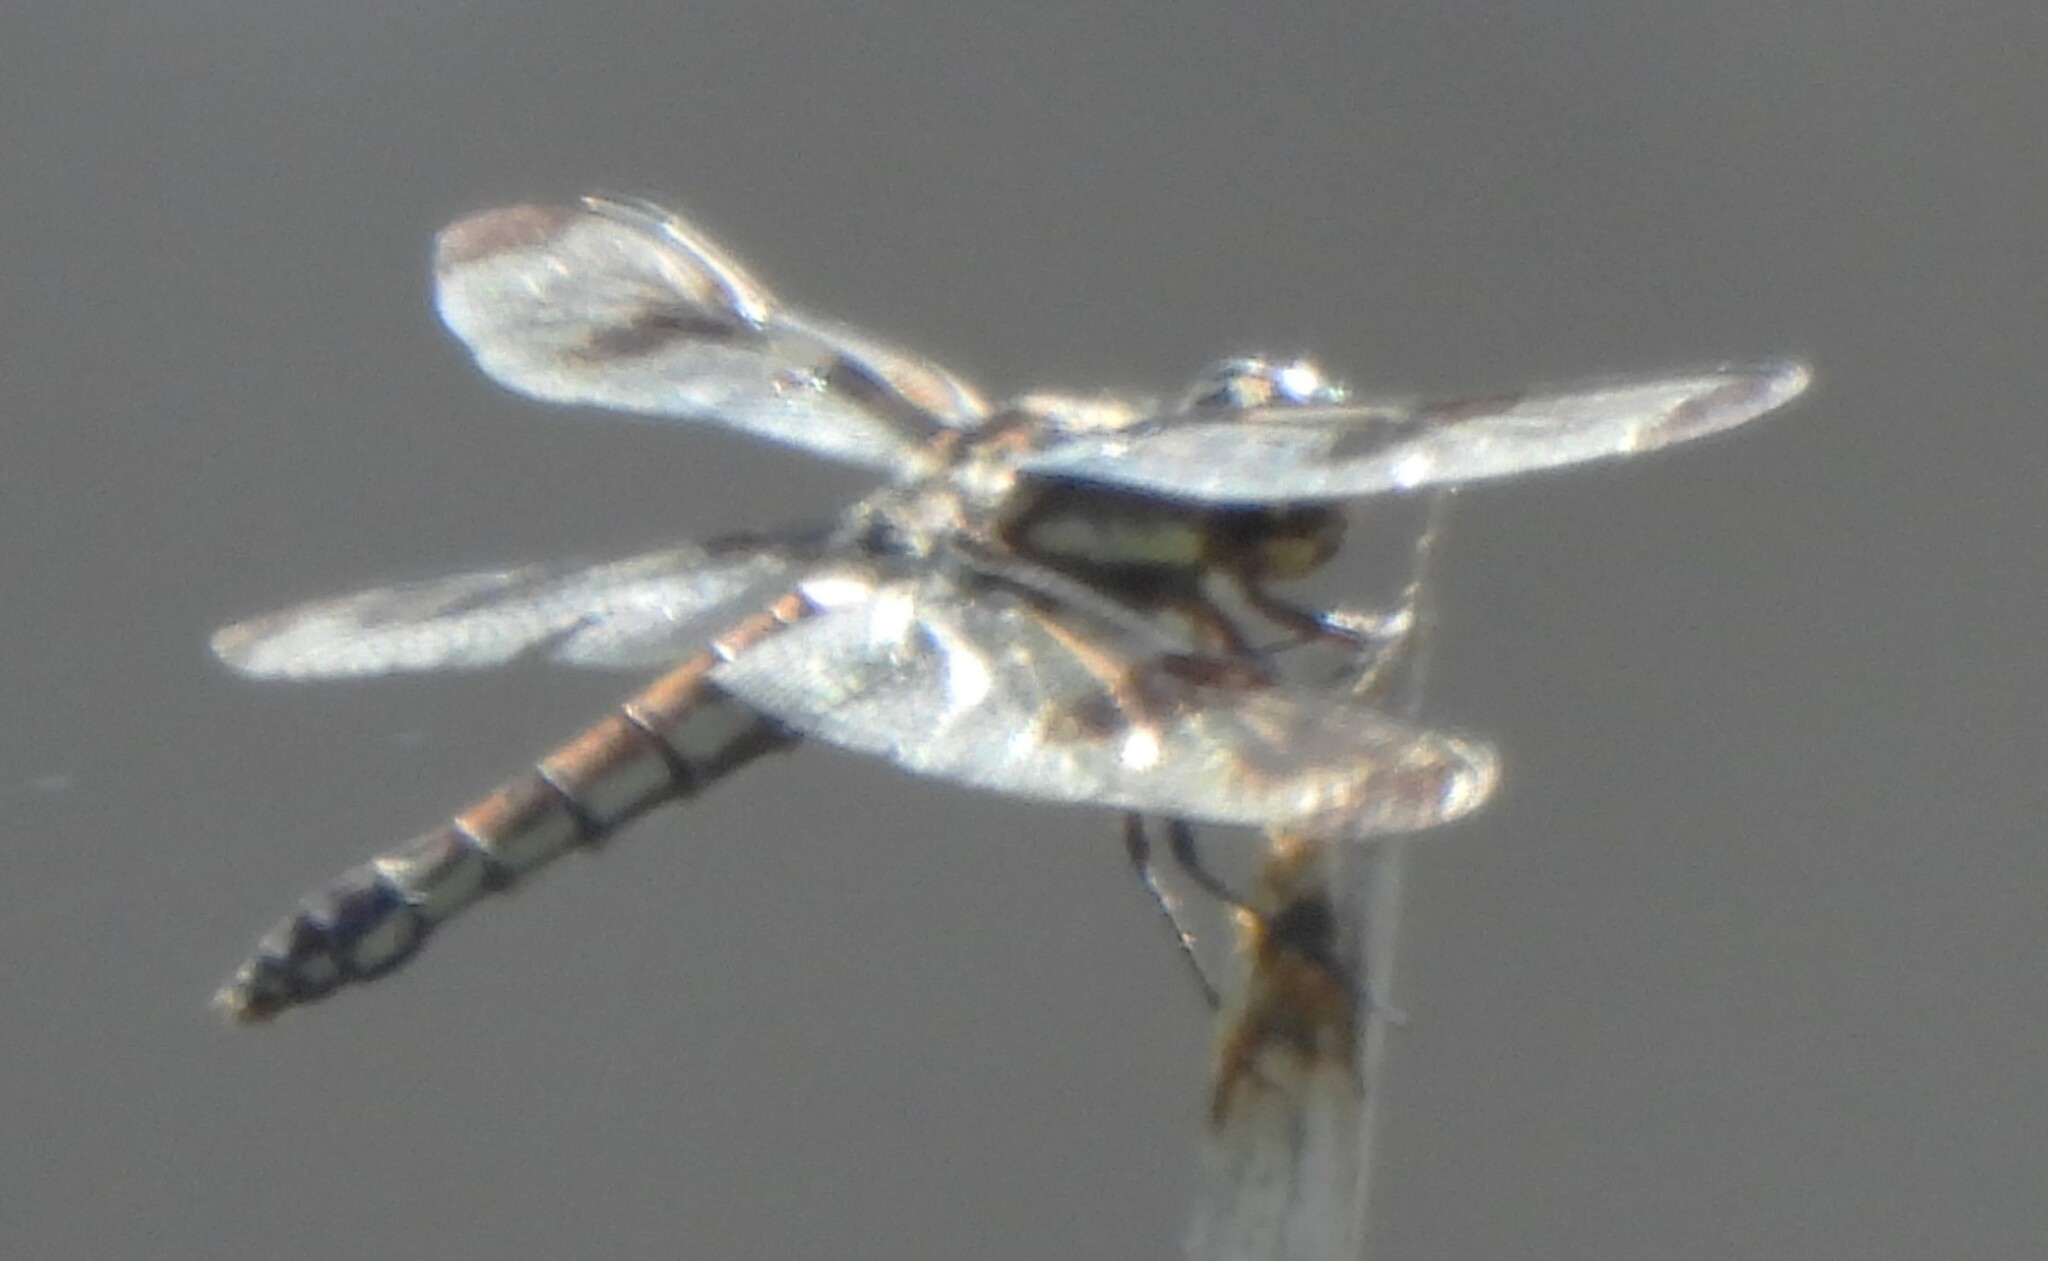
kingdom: Animalia
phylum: Arthropoda
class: Insecta
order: Odonata
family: Libellulidae
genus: Libellula
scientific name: Libellula pulchella
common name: Twelve-spotted skimmer
